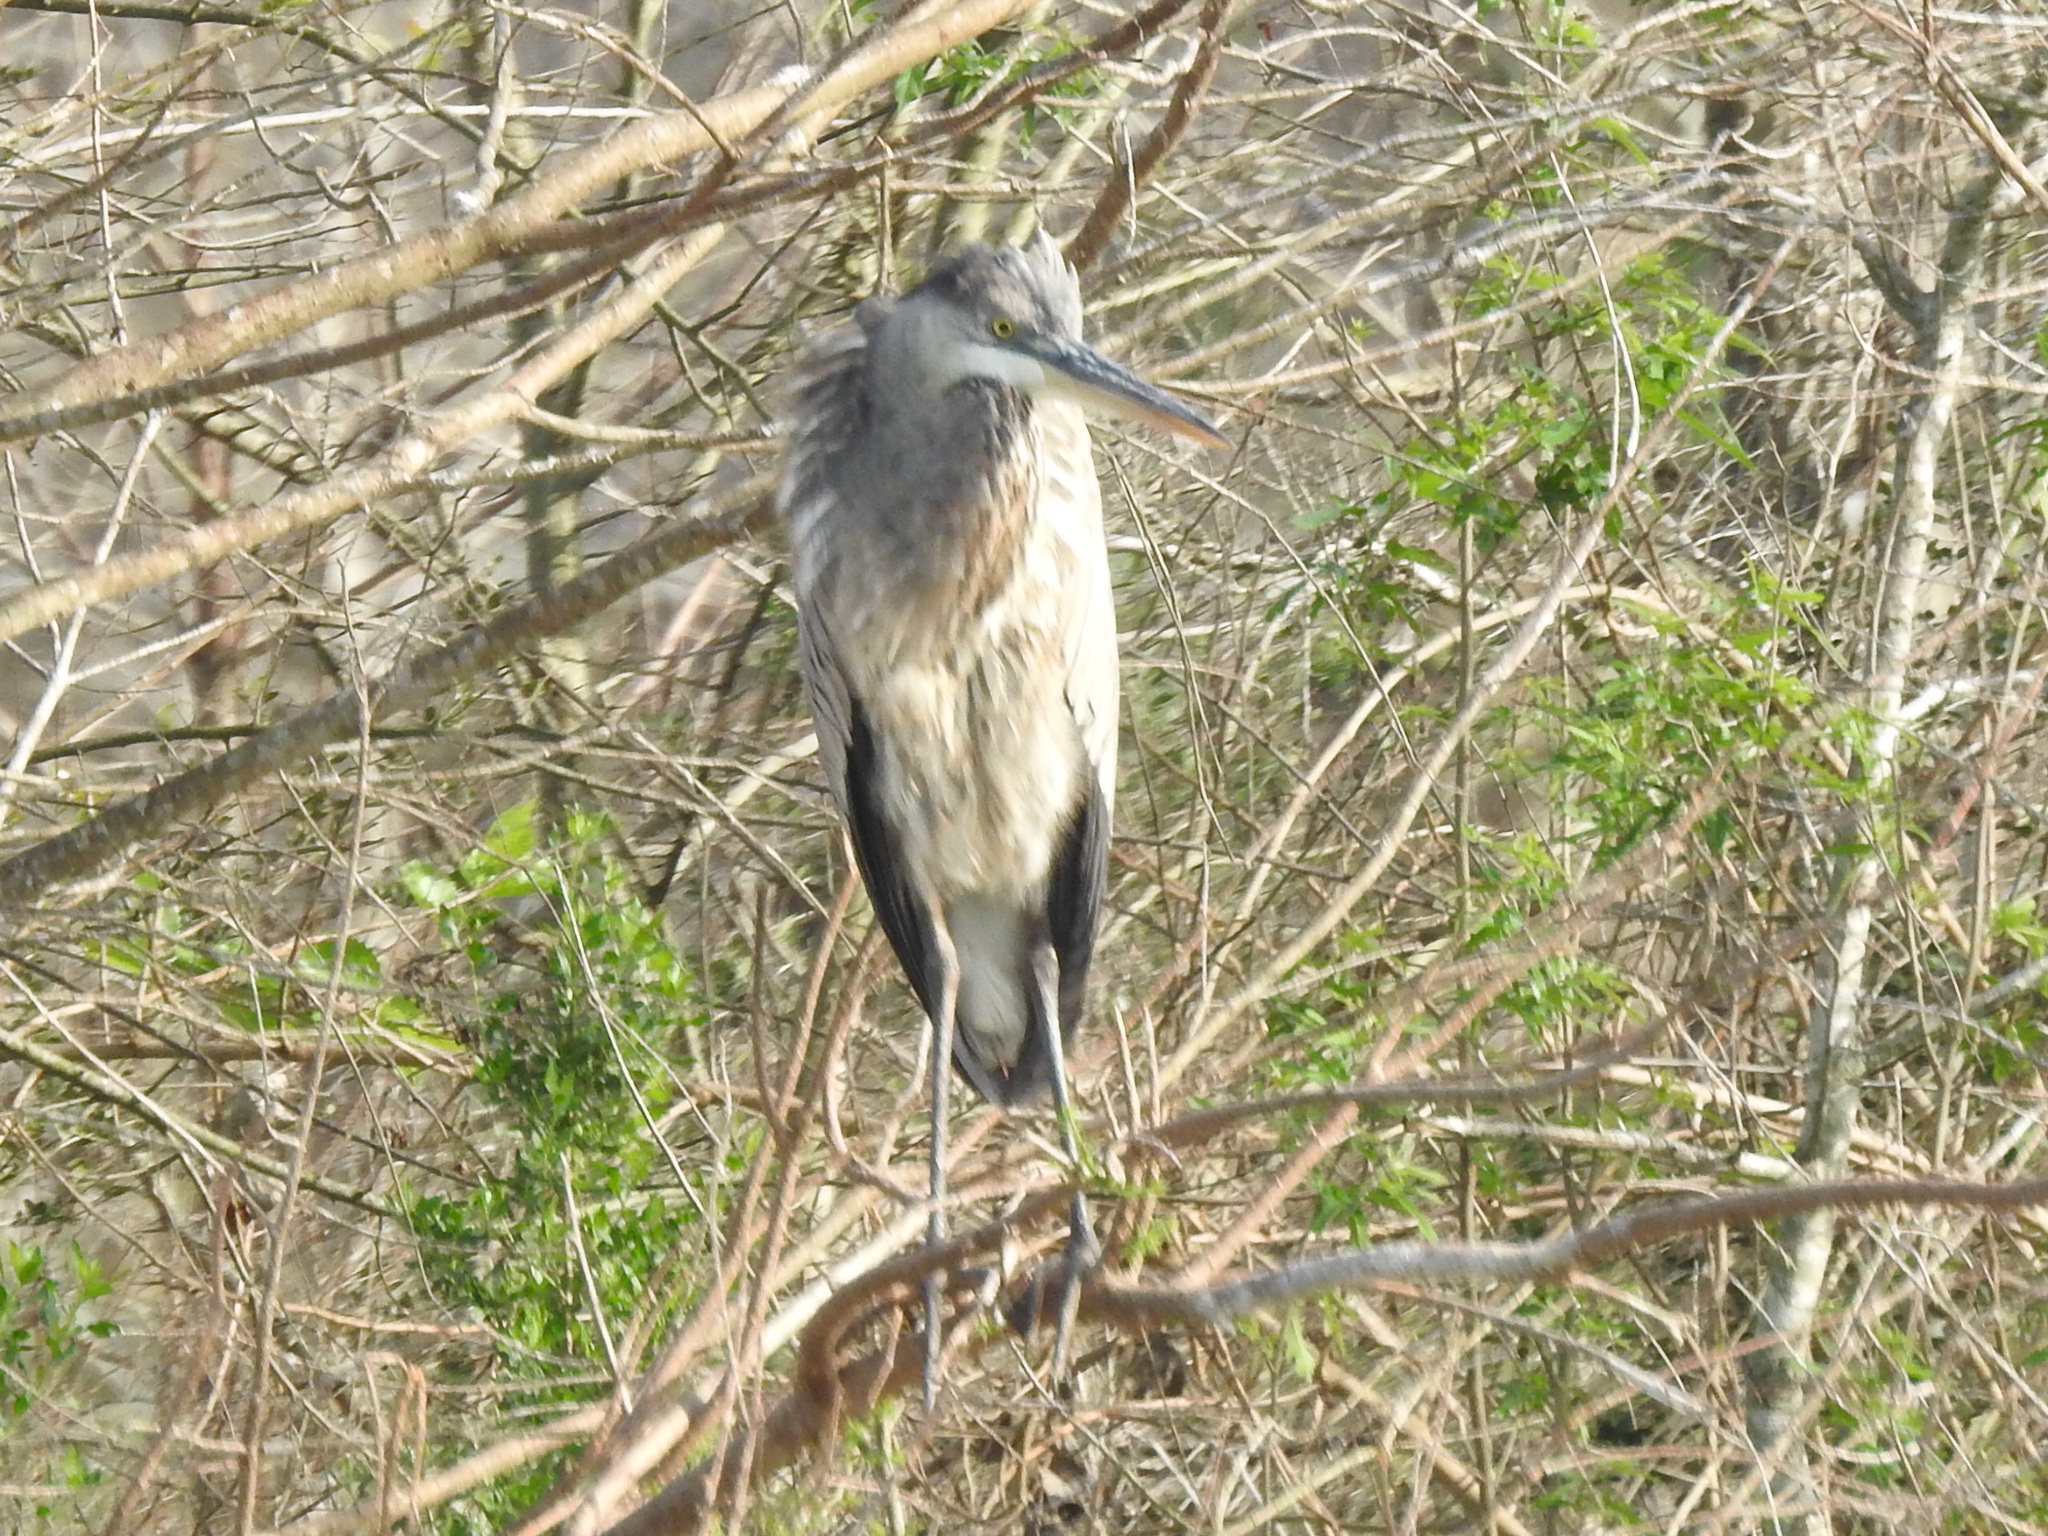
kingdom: Animalia
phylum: Chordata
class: Aves
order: Pelecaniformes
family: Ardeidae
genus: Ardea
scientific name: Ardea herodias
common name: Great blue heron
